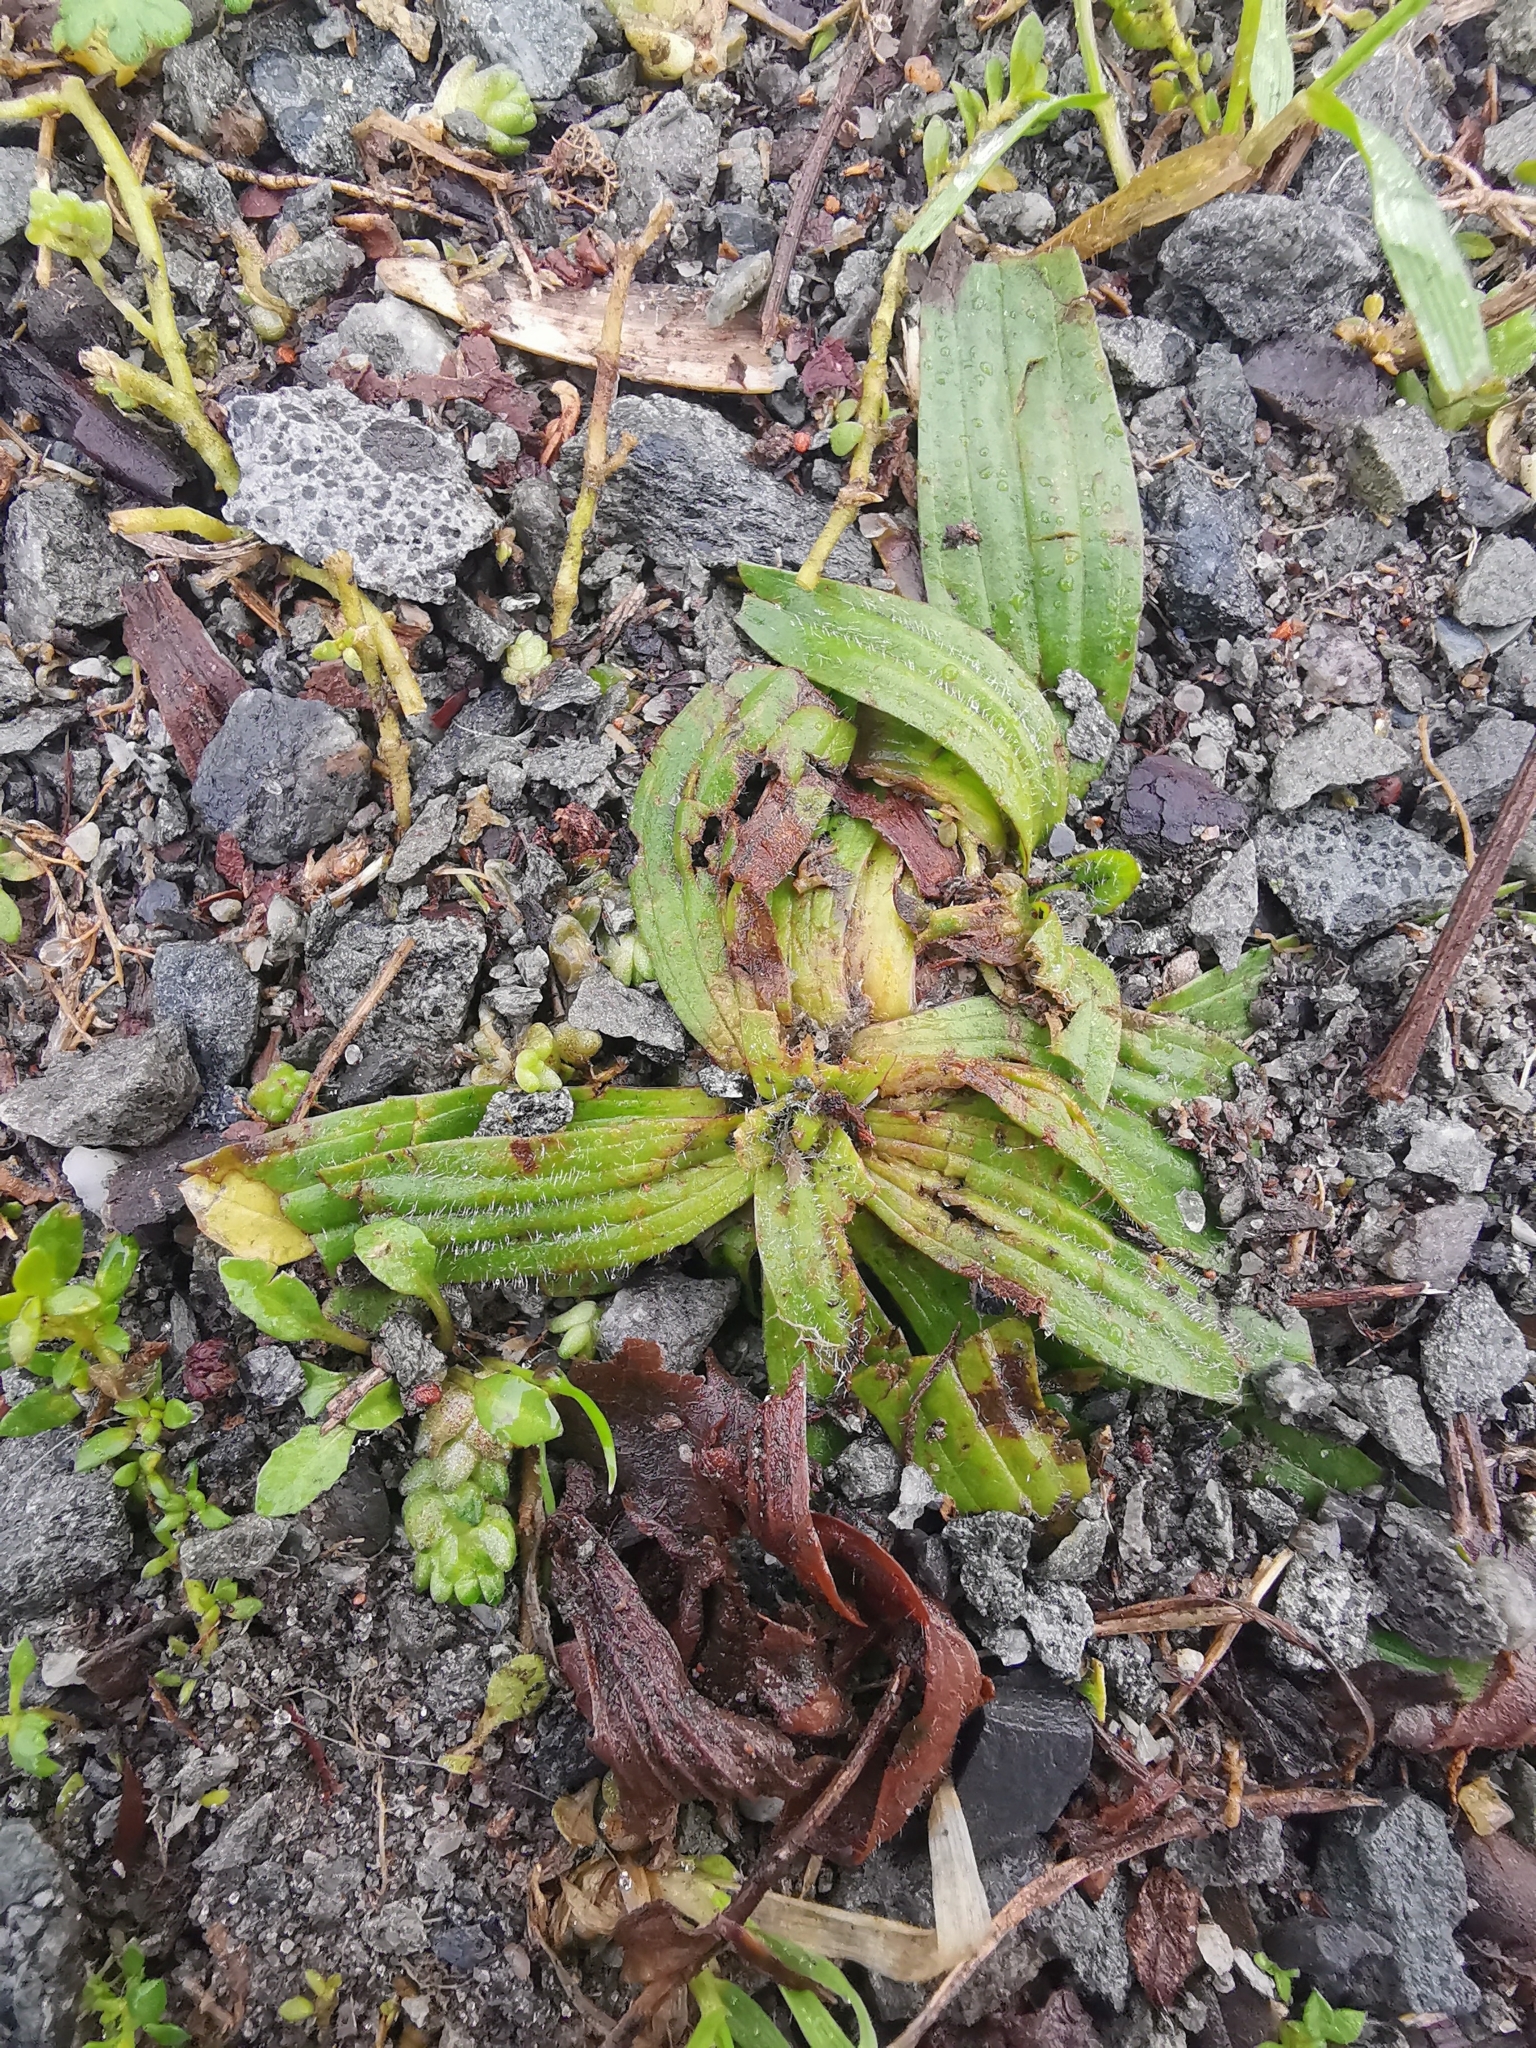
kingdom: Plantae
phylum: Tracheophyta
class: Magnoliopsida
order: Lamiales
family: Plantaginaceae
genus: Plantago
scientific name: Plantago lanceolata
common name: Ribwort plantain
